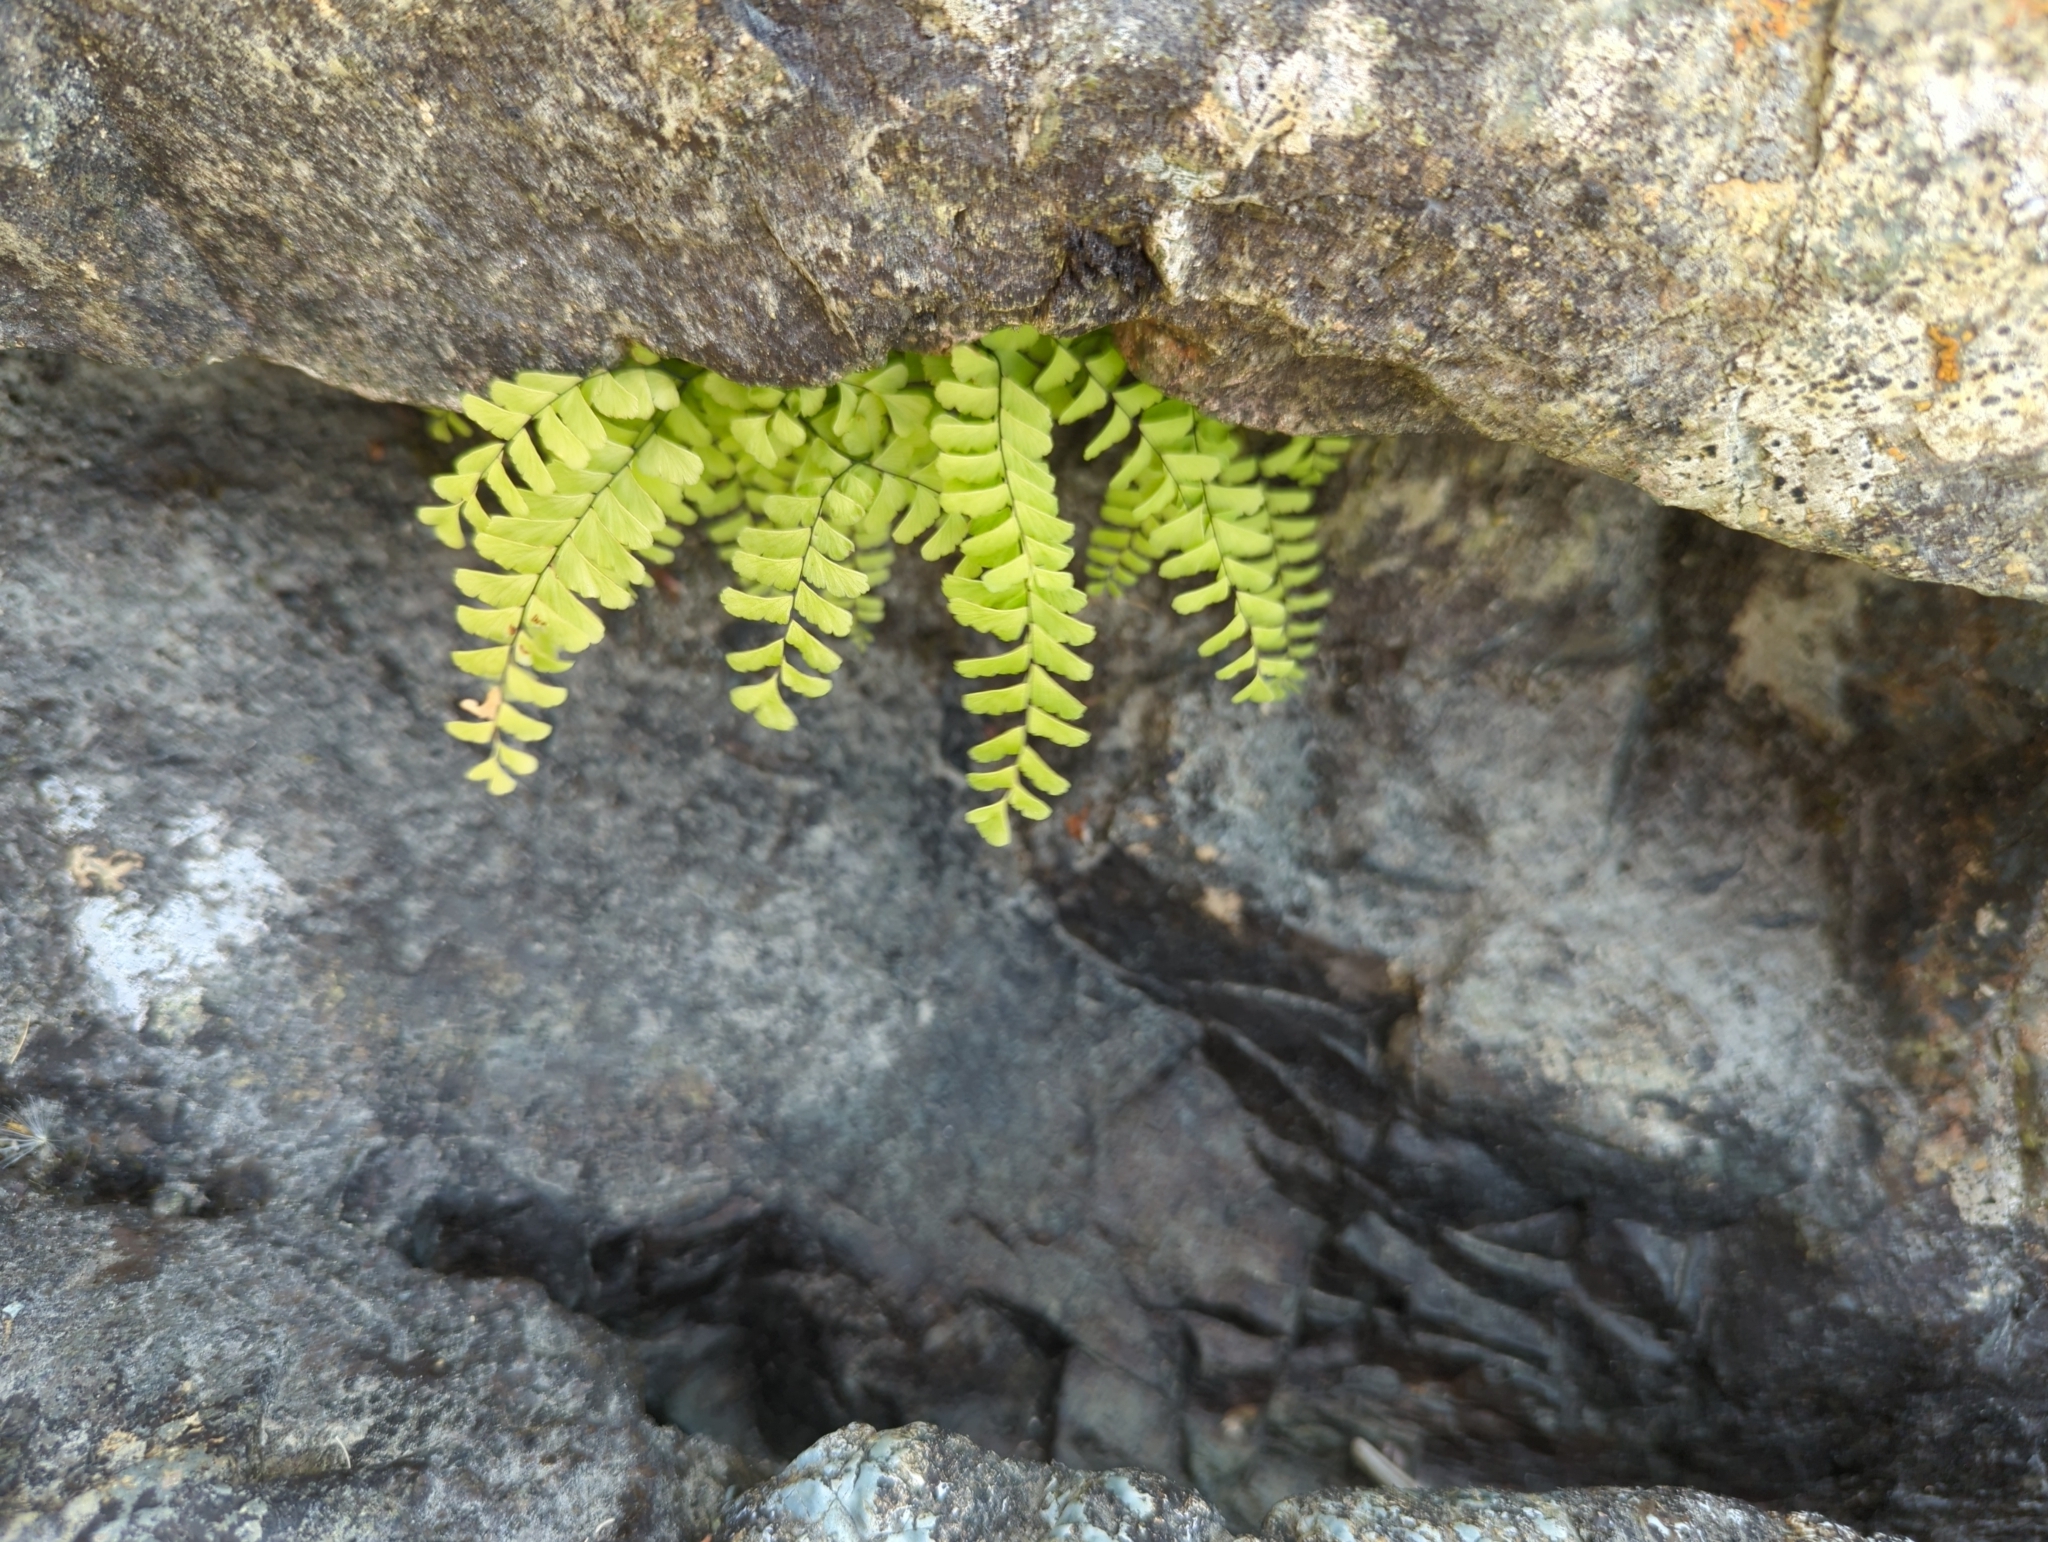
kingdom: Plantae
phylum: Tracheophyta
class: Polypodiopsida
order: Polypodiales
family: Pteridaceae
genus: Adiantum
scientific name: Adiantum aleuticum
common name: Aleutian maidenhair fern
